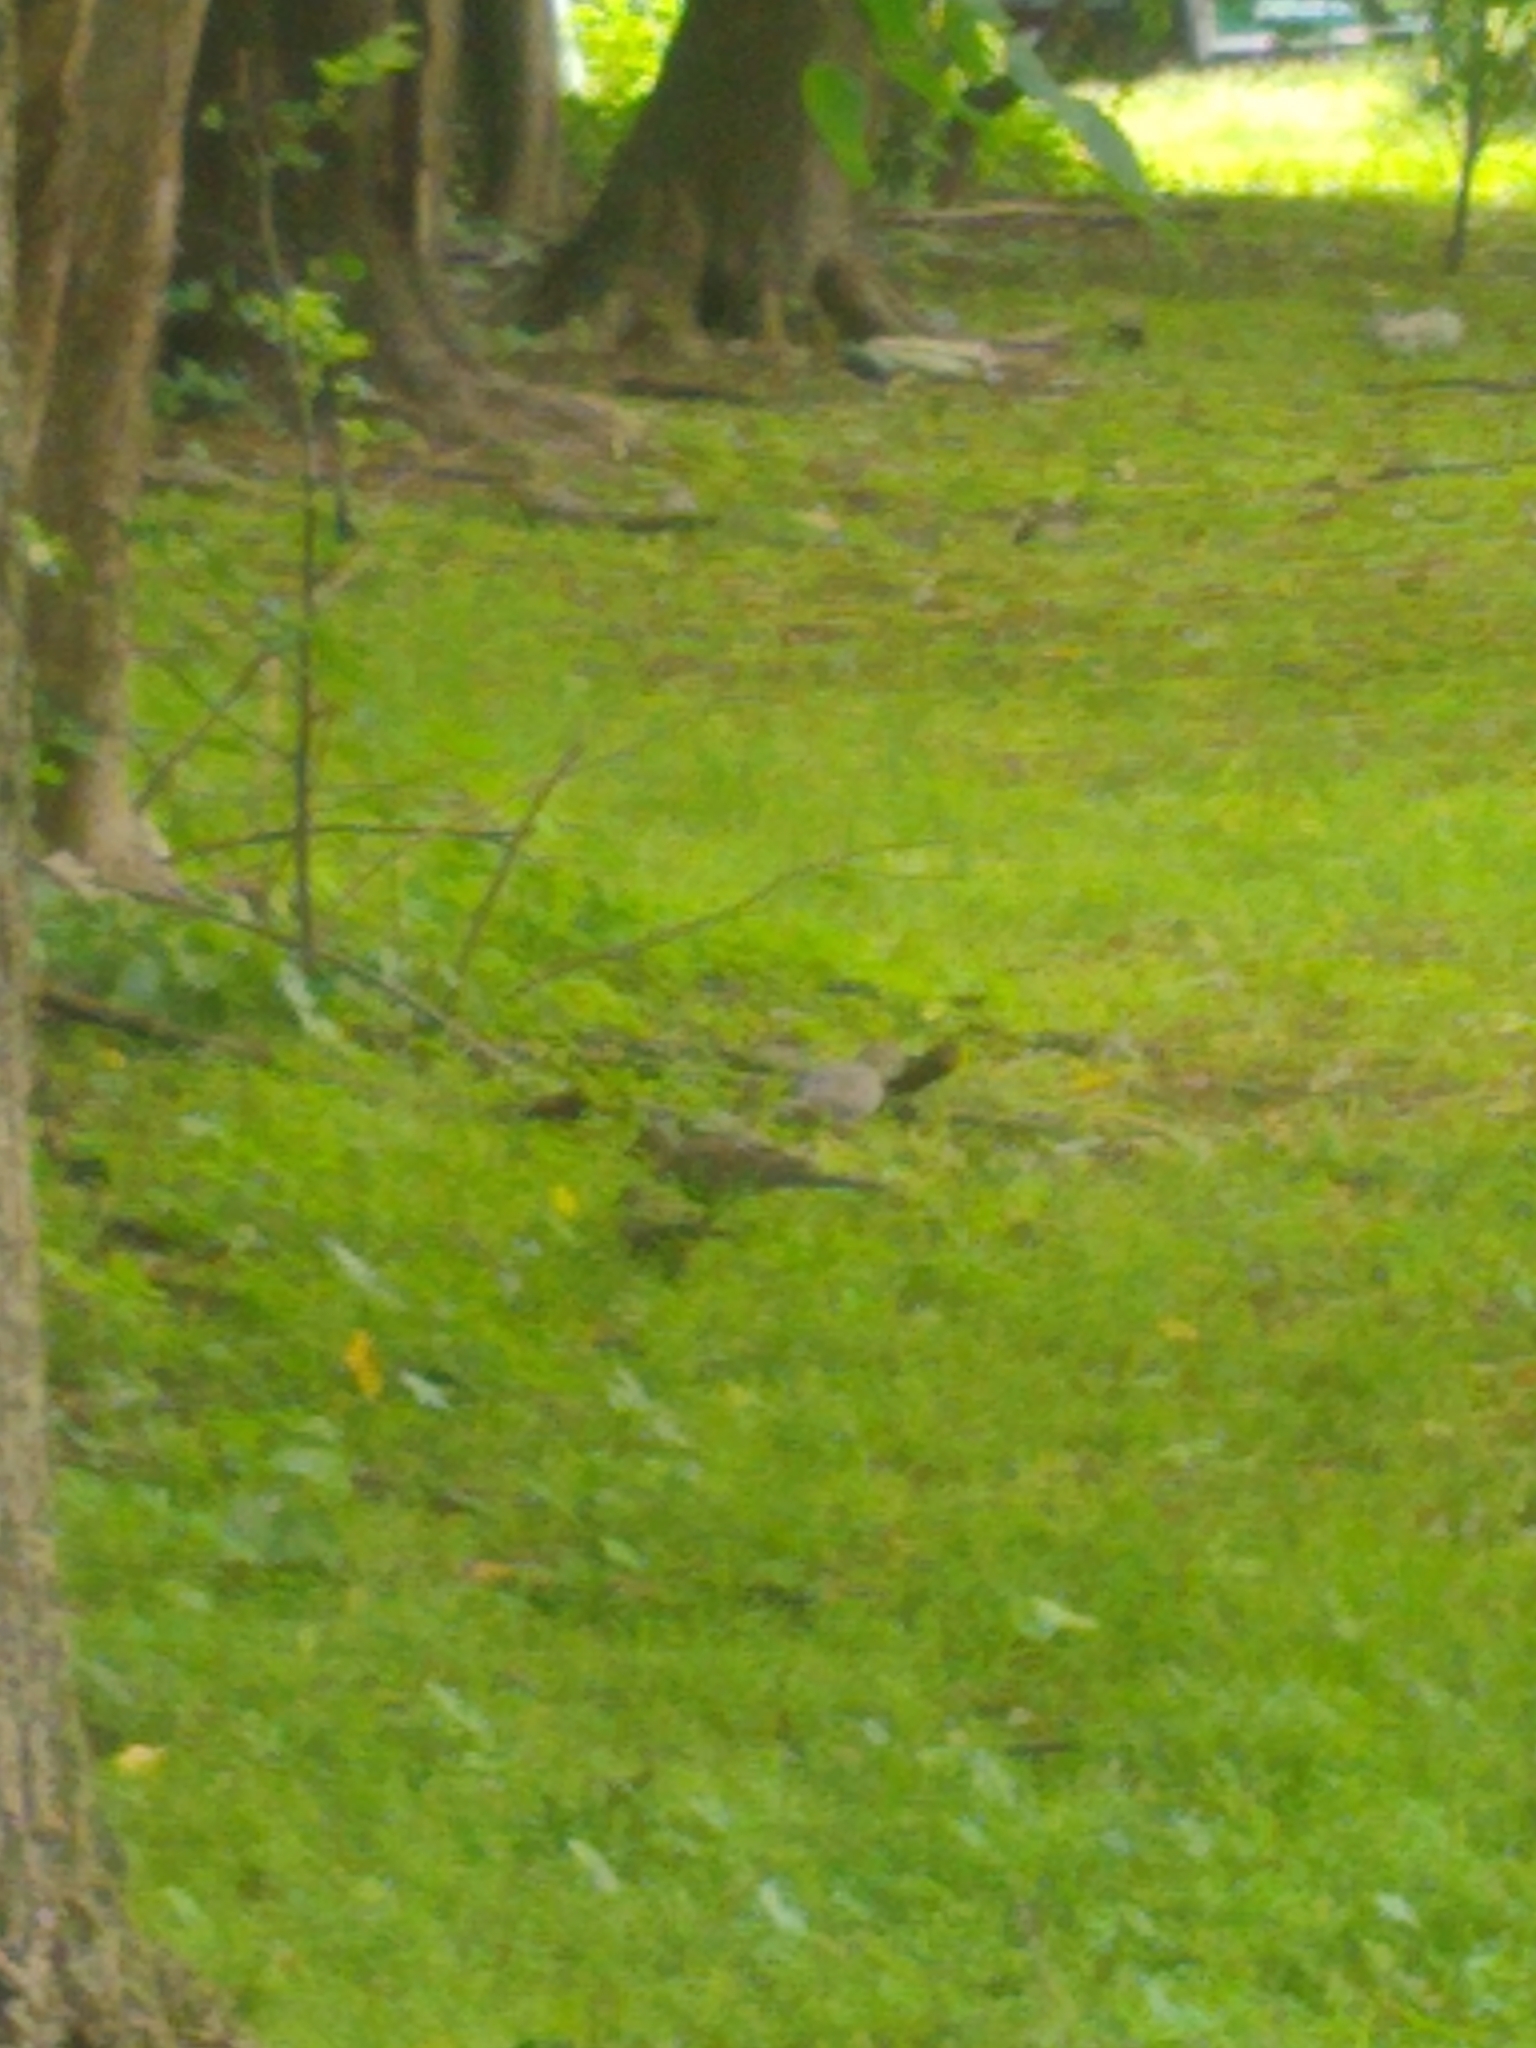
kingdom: Animalia
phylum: Chordata
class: Aves
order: Columbiformes
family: Columbidae
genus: Zenaida
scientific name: Zenaida macroura
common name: Mourning dove
